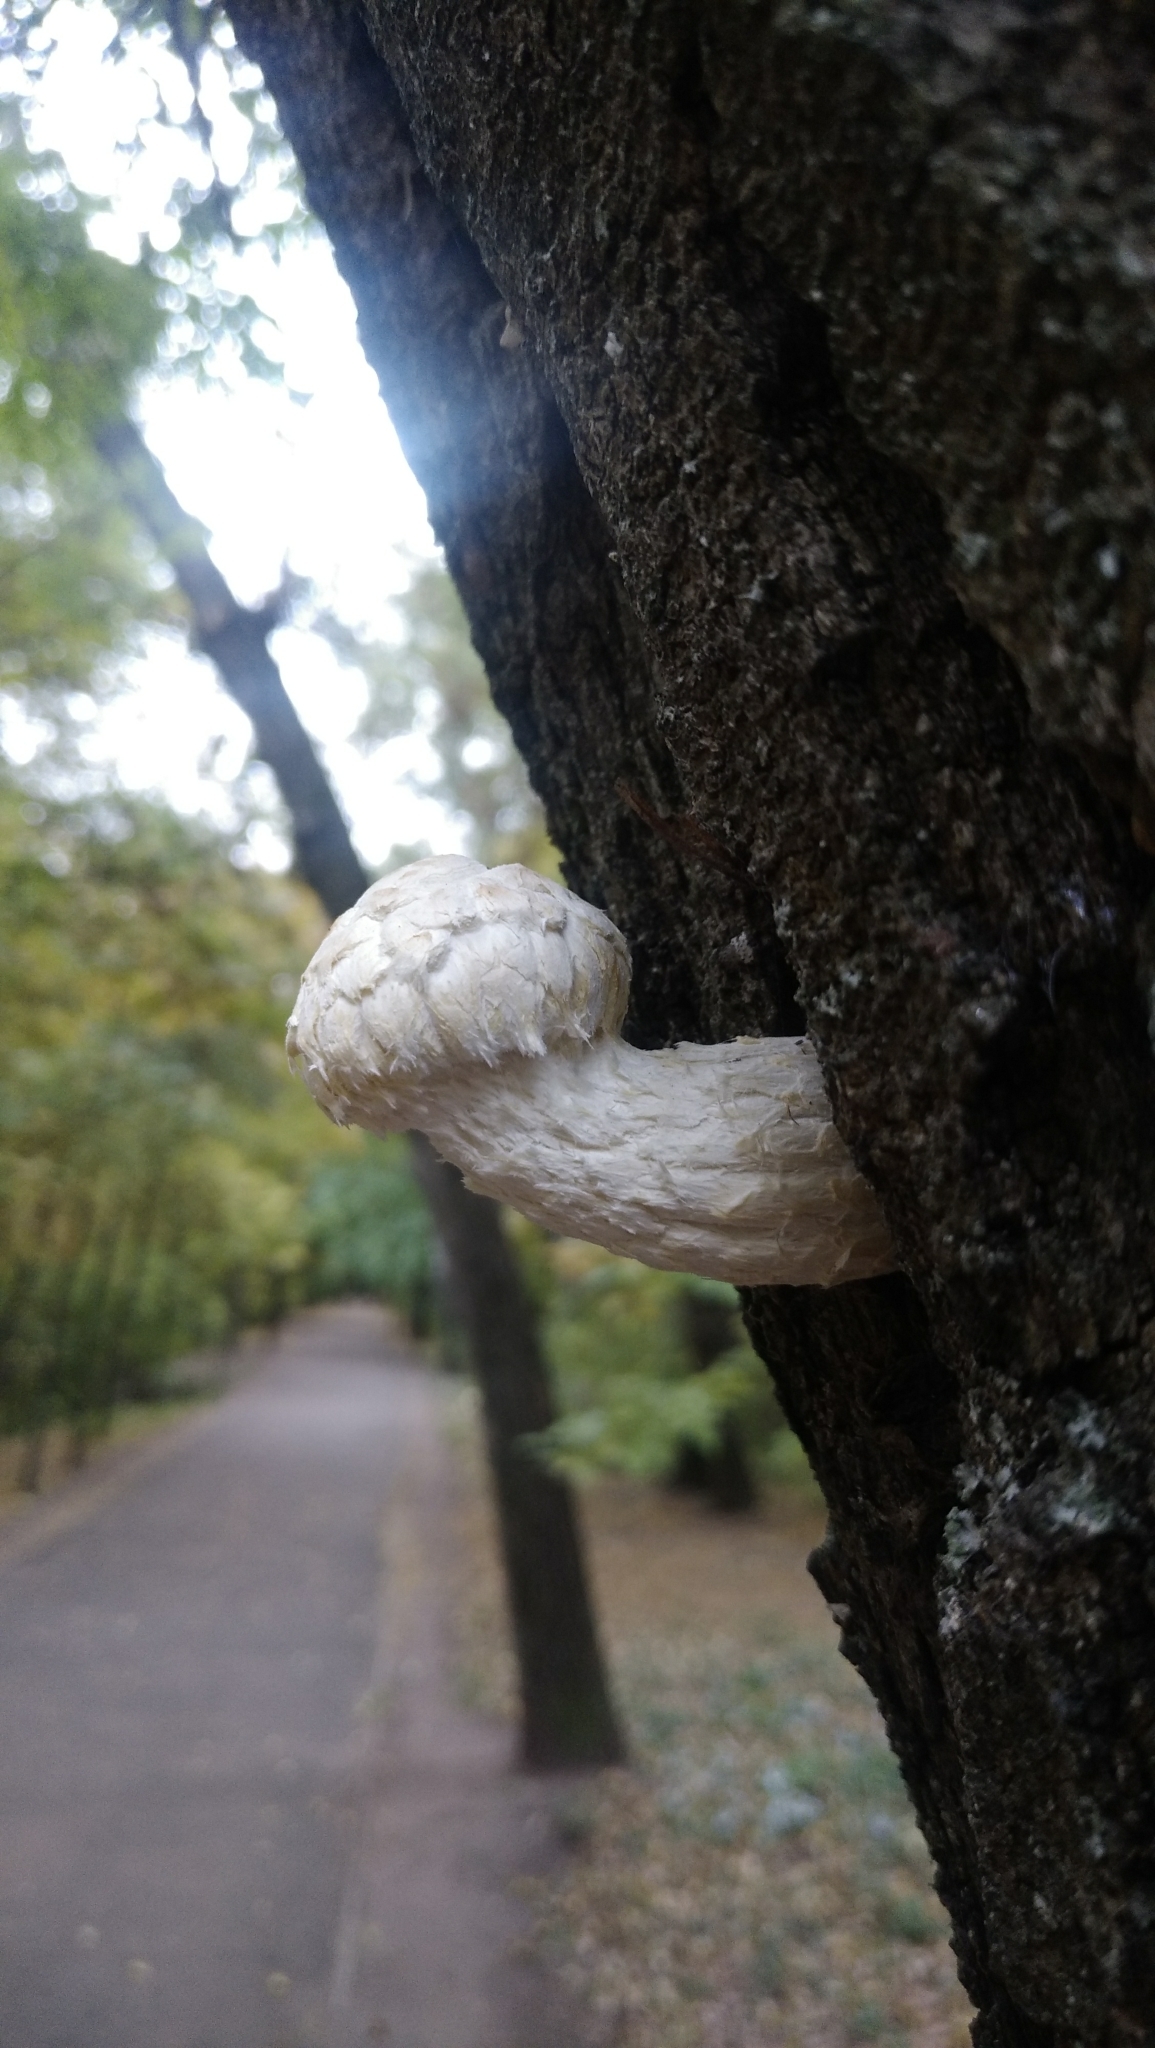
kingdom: Fungi
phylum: Basidiomycota
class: Agaricomycetes
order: Agaricales
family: Strophariaceae
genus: Pholiota
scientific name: Pholiota populnea
